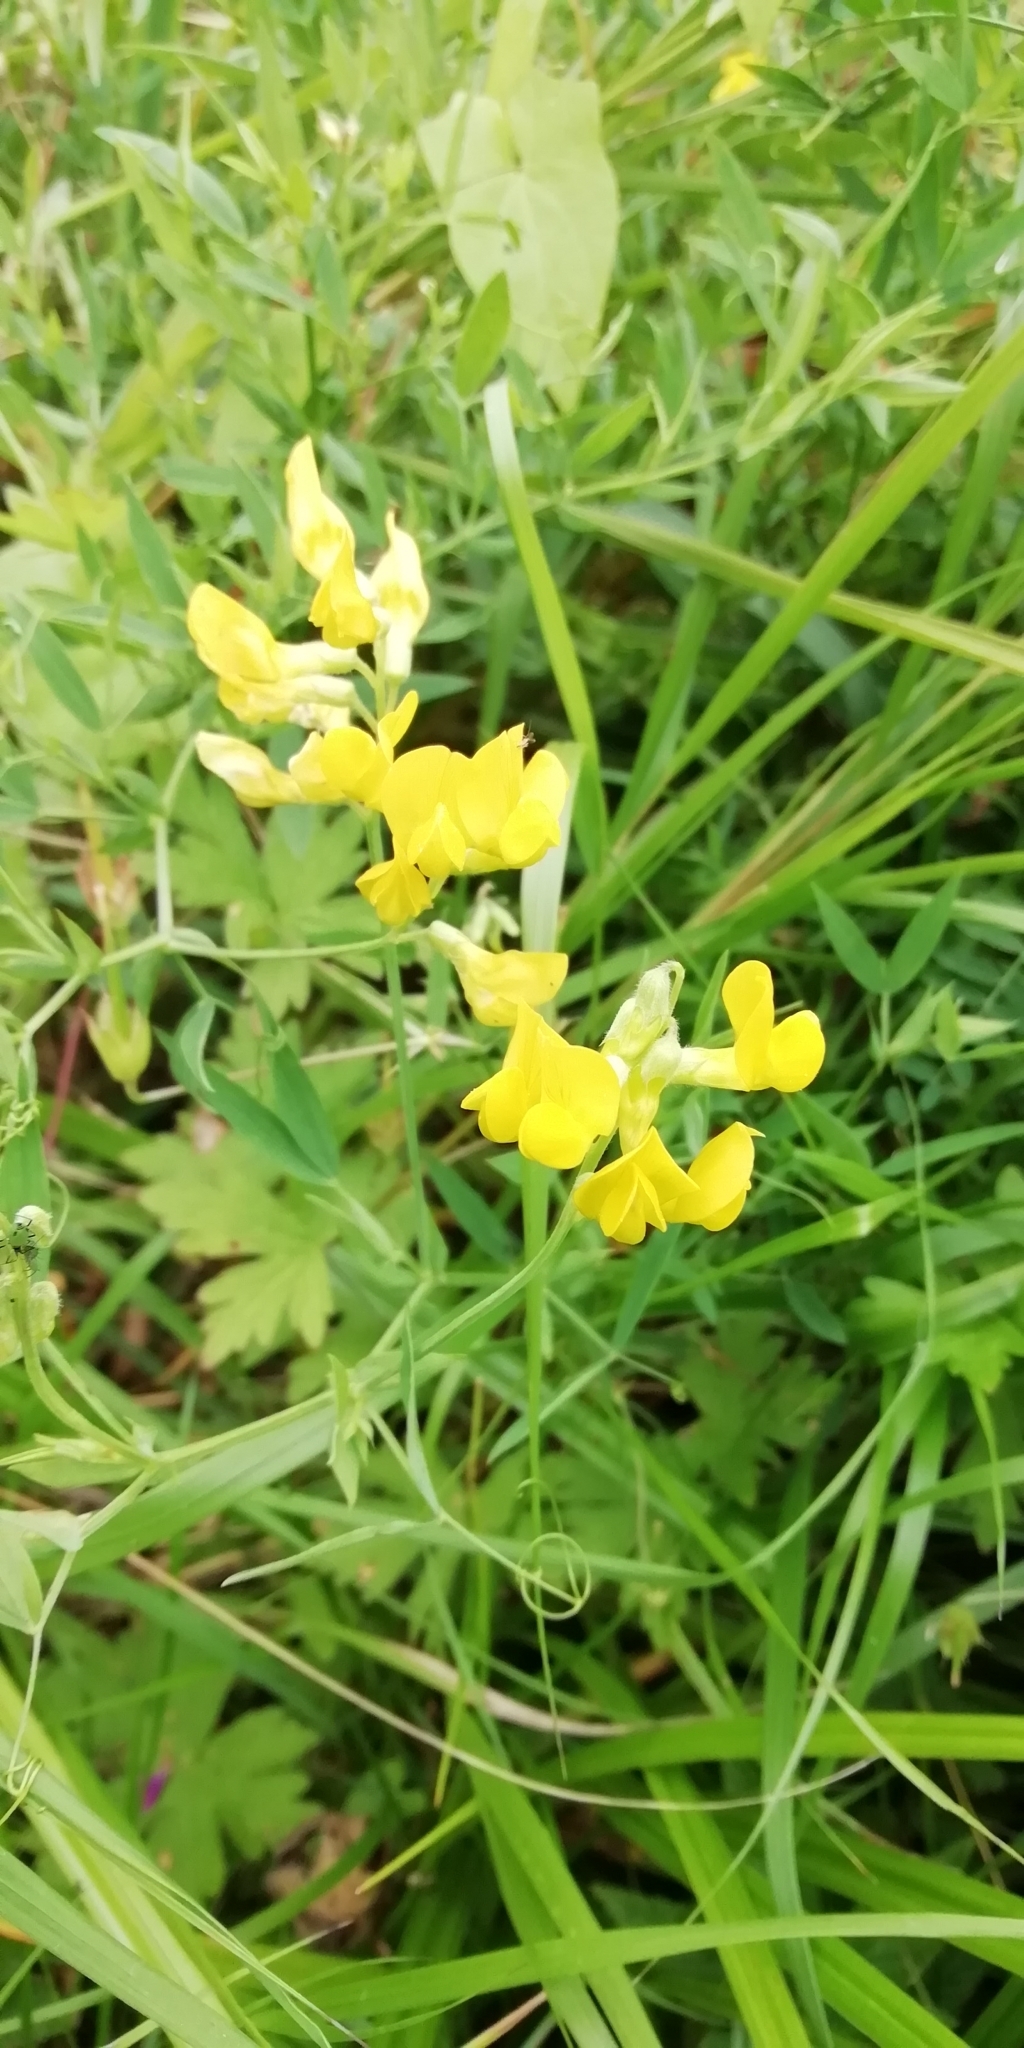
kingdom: Plantae
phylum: Tracheophyta
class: Magnoliopsida
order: Fabales
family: Fabaceae
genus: Lathyrus
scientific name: Lathyrus pratensis
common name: Meadow vetchling
